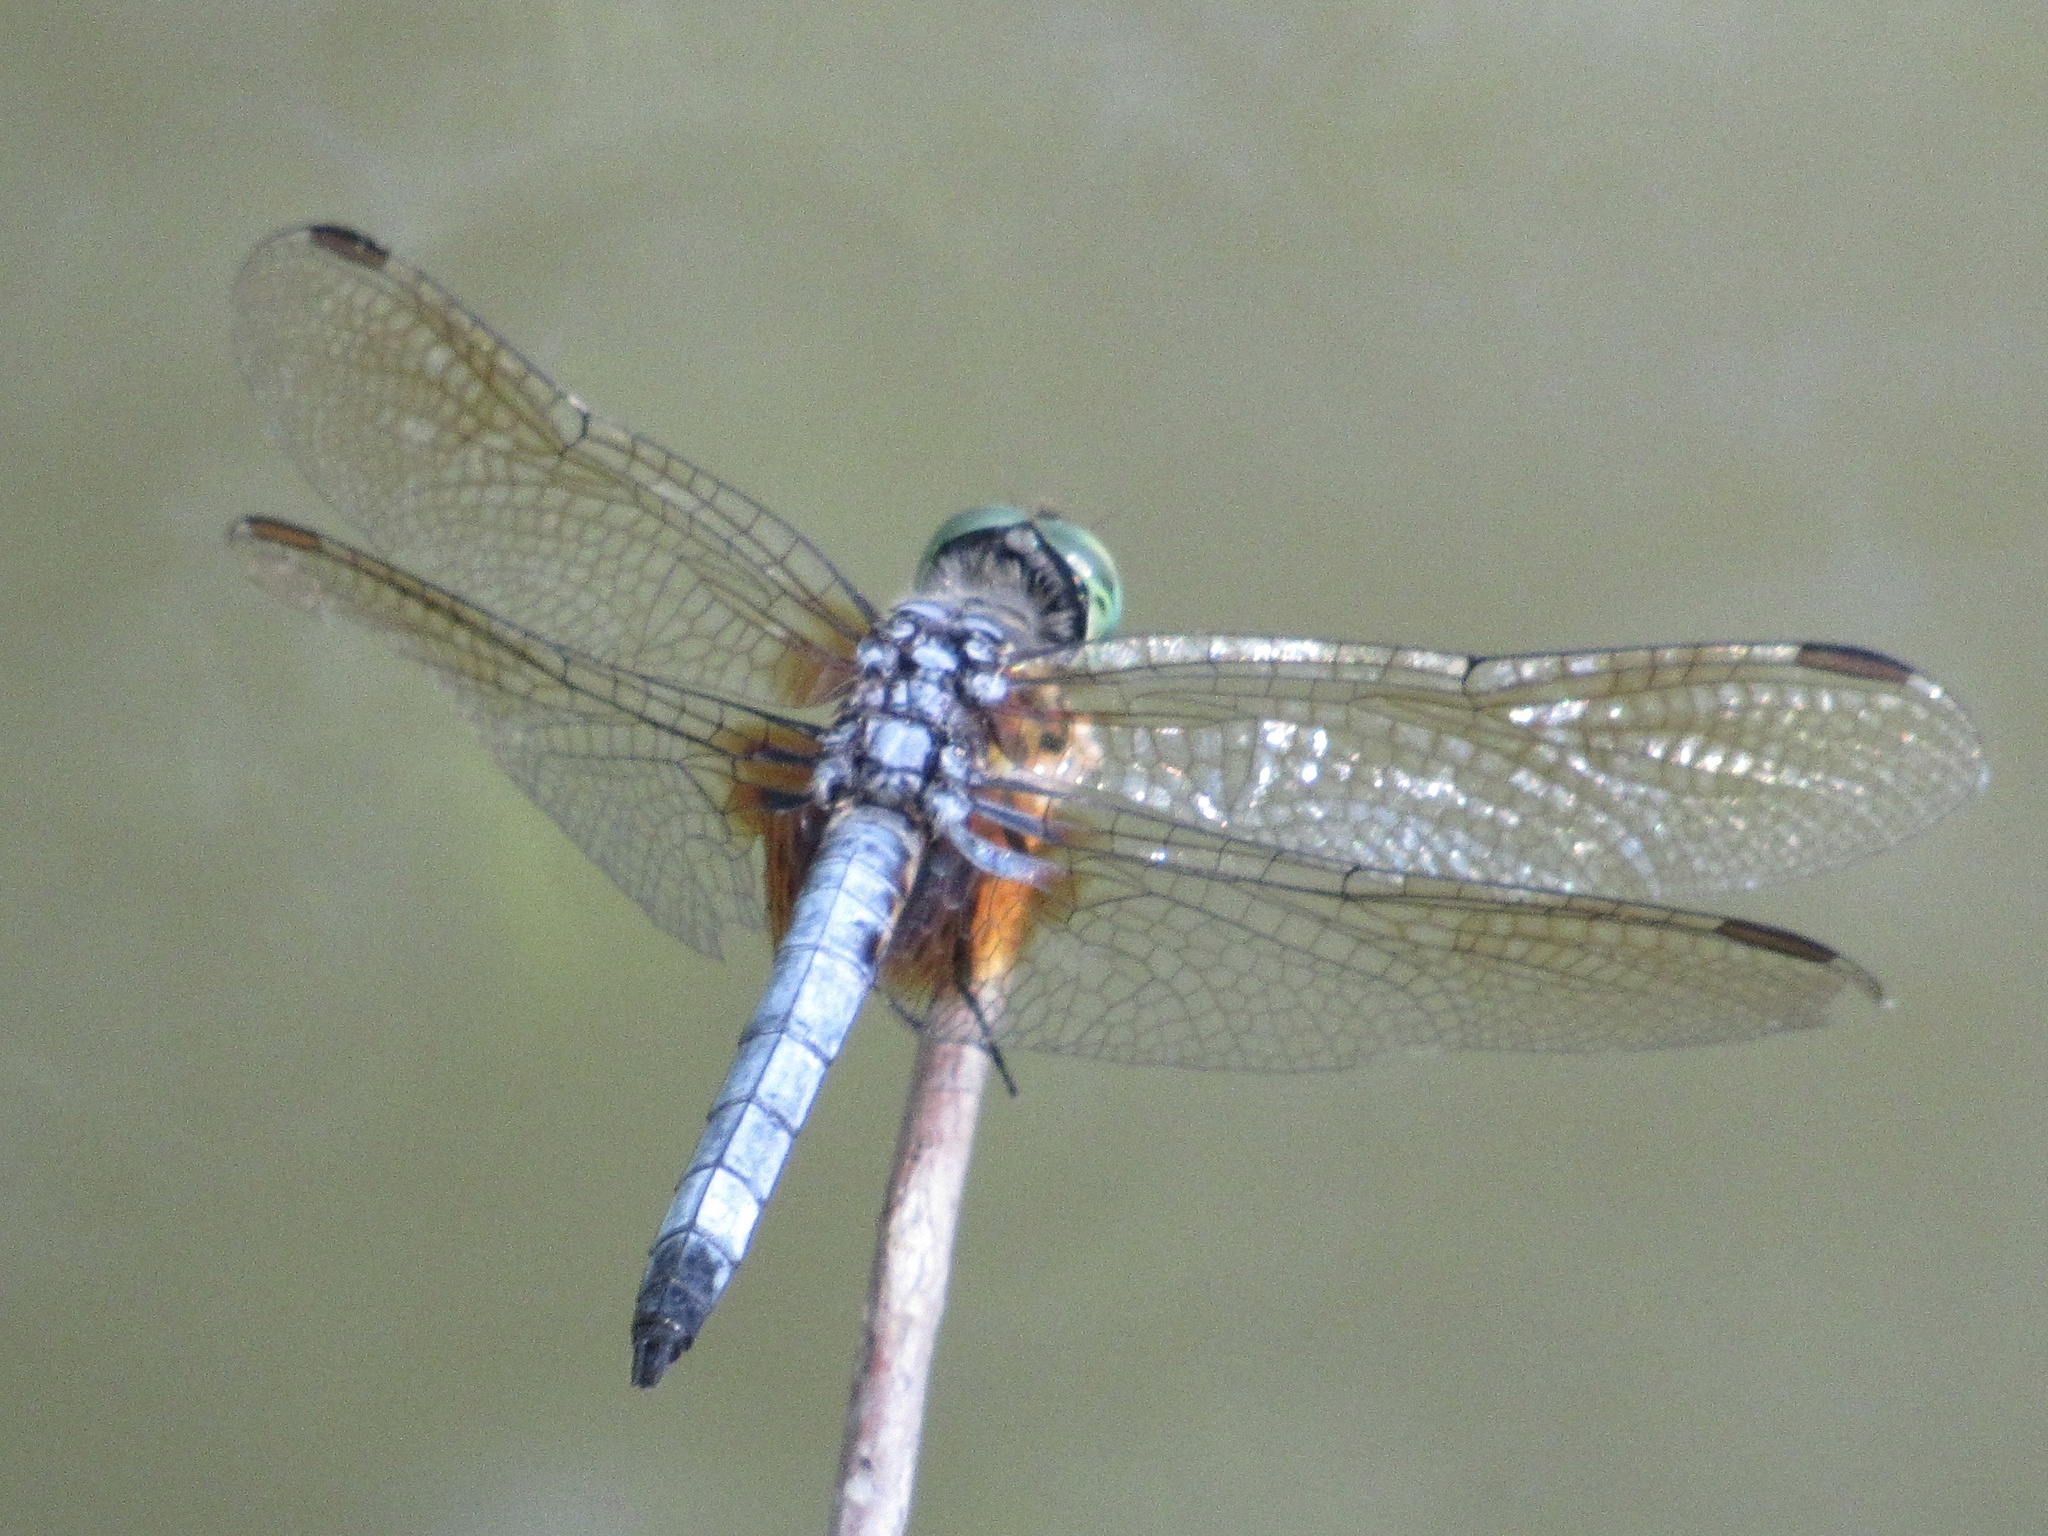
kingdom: Animalia
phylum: Arthropoda
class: Insecta
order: Odonata
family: Libellulidae
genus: Pachydiplax
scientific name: Pachydiplax longipennis
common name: Blue dasher
